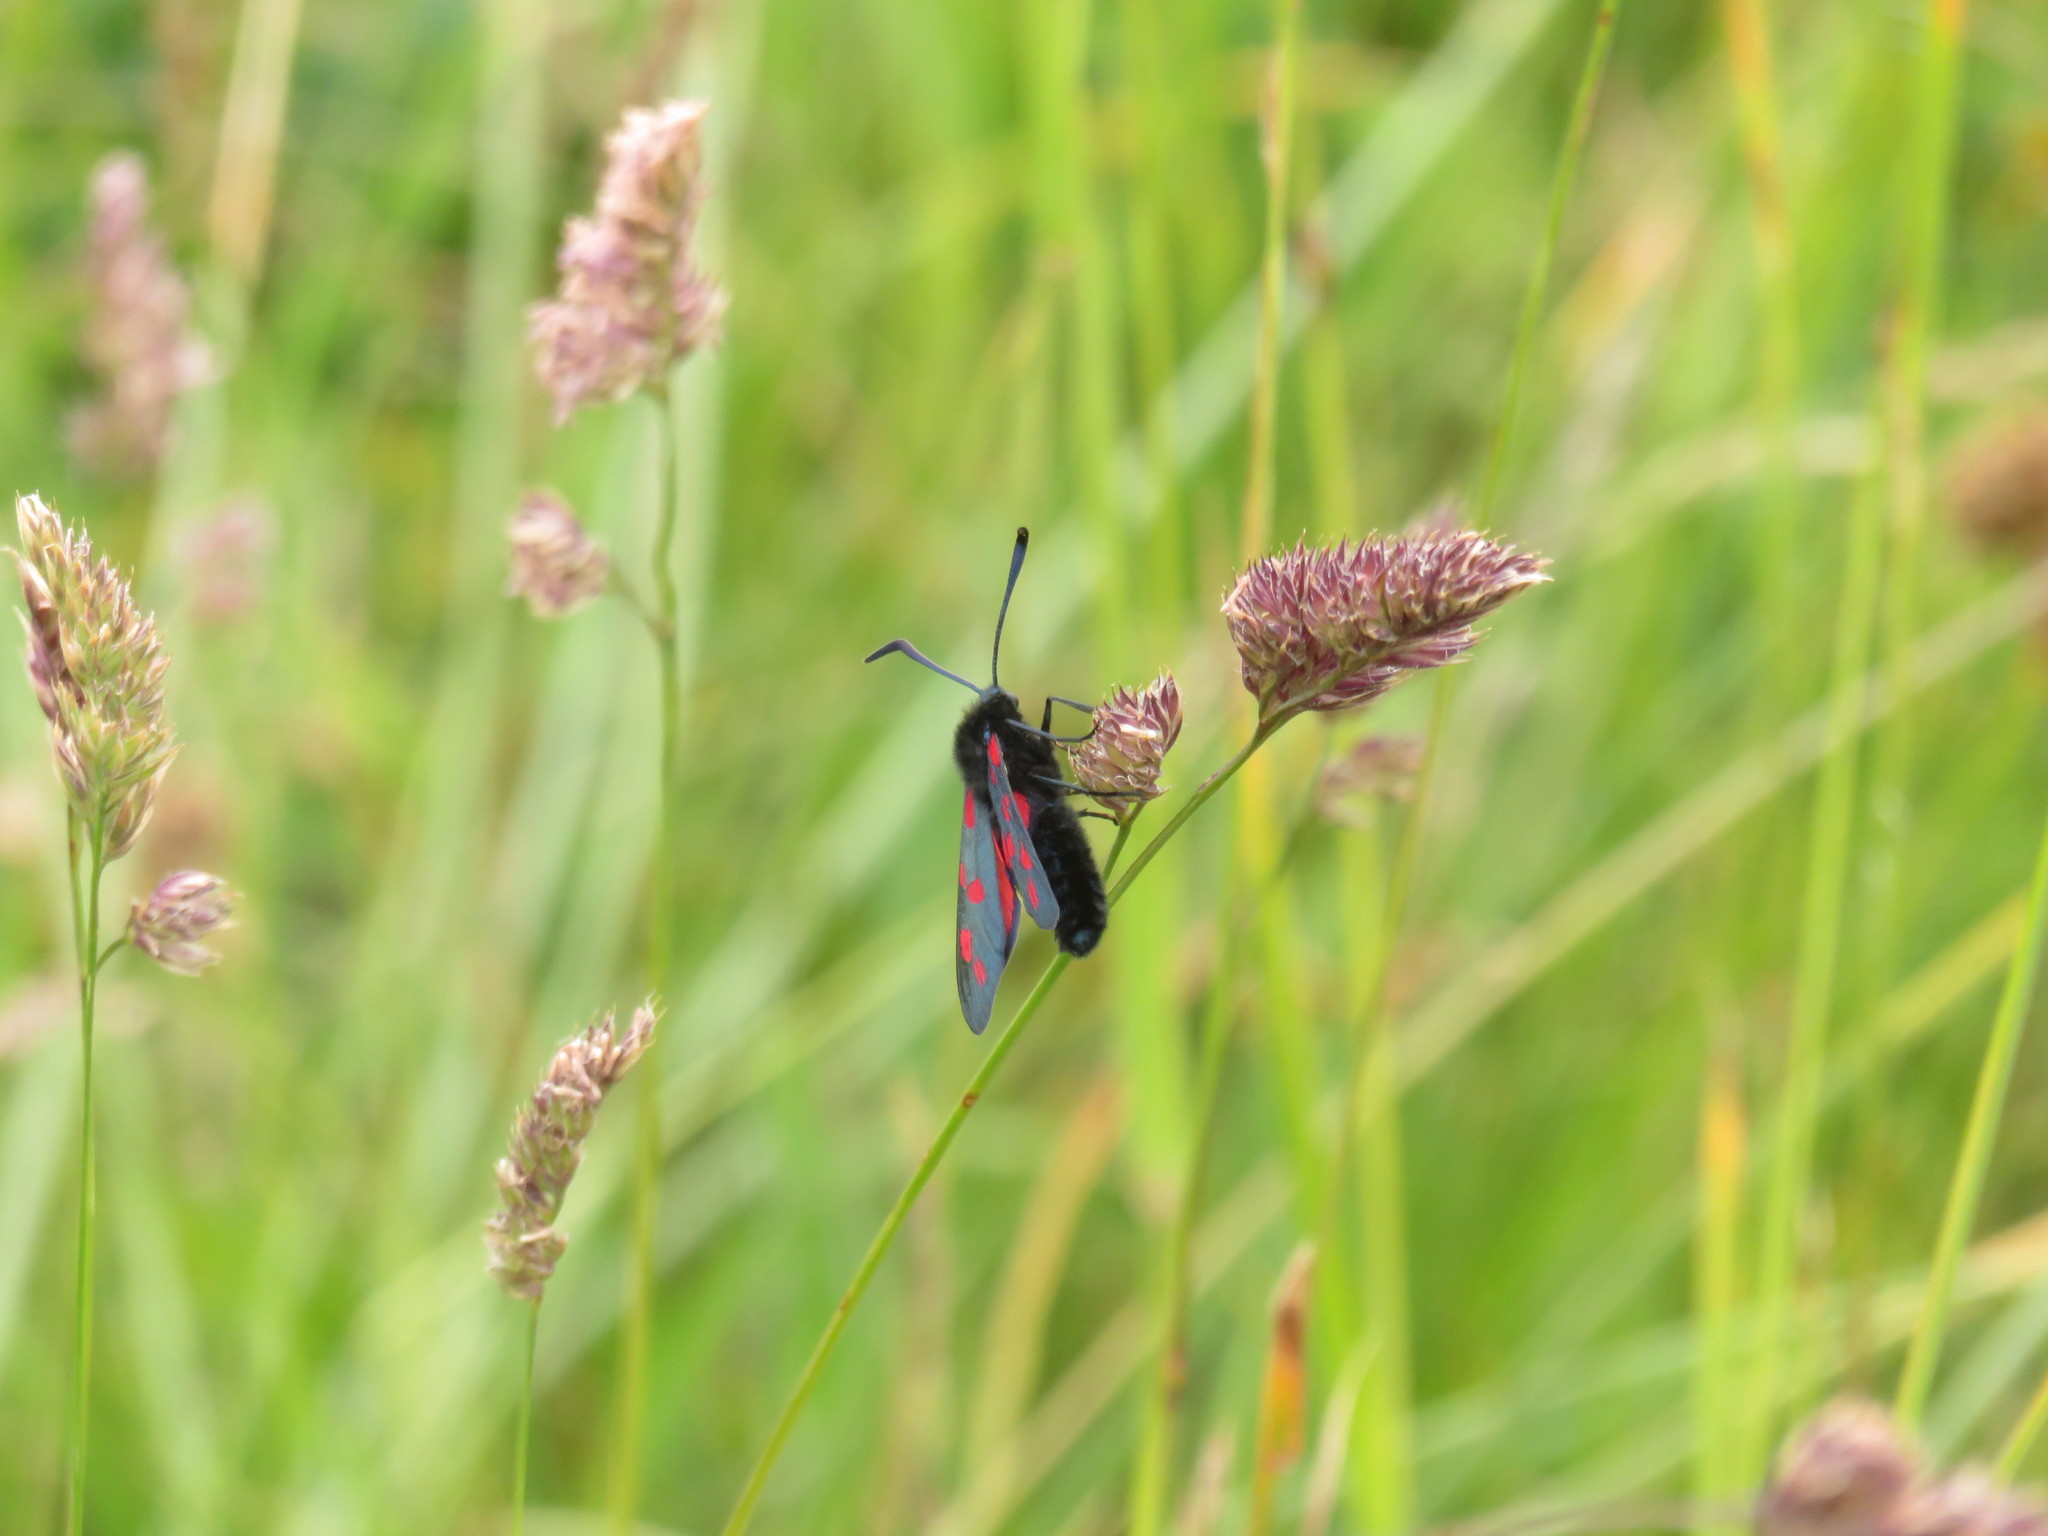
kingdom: Animalia
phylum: Arthropoda
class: Insecta
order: Lepidoptera
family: Zygaenidae
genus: Zygaena
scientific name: Zygaena filipendulae
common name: Six-spot burnet
